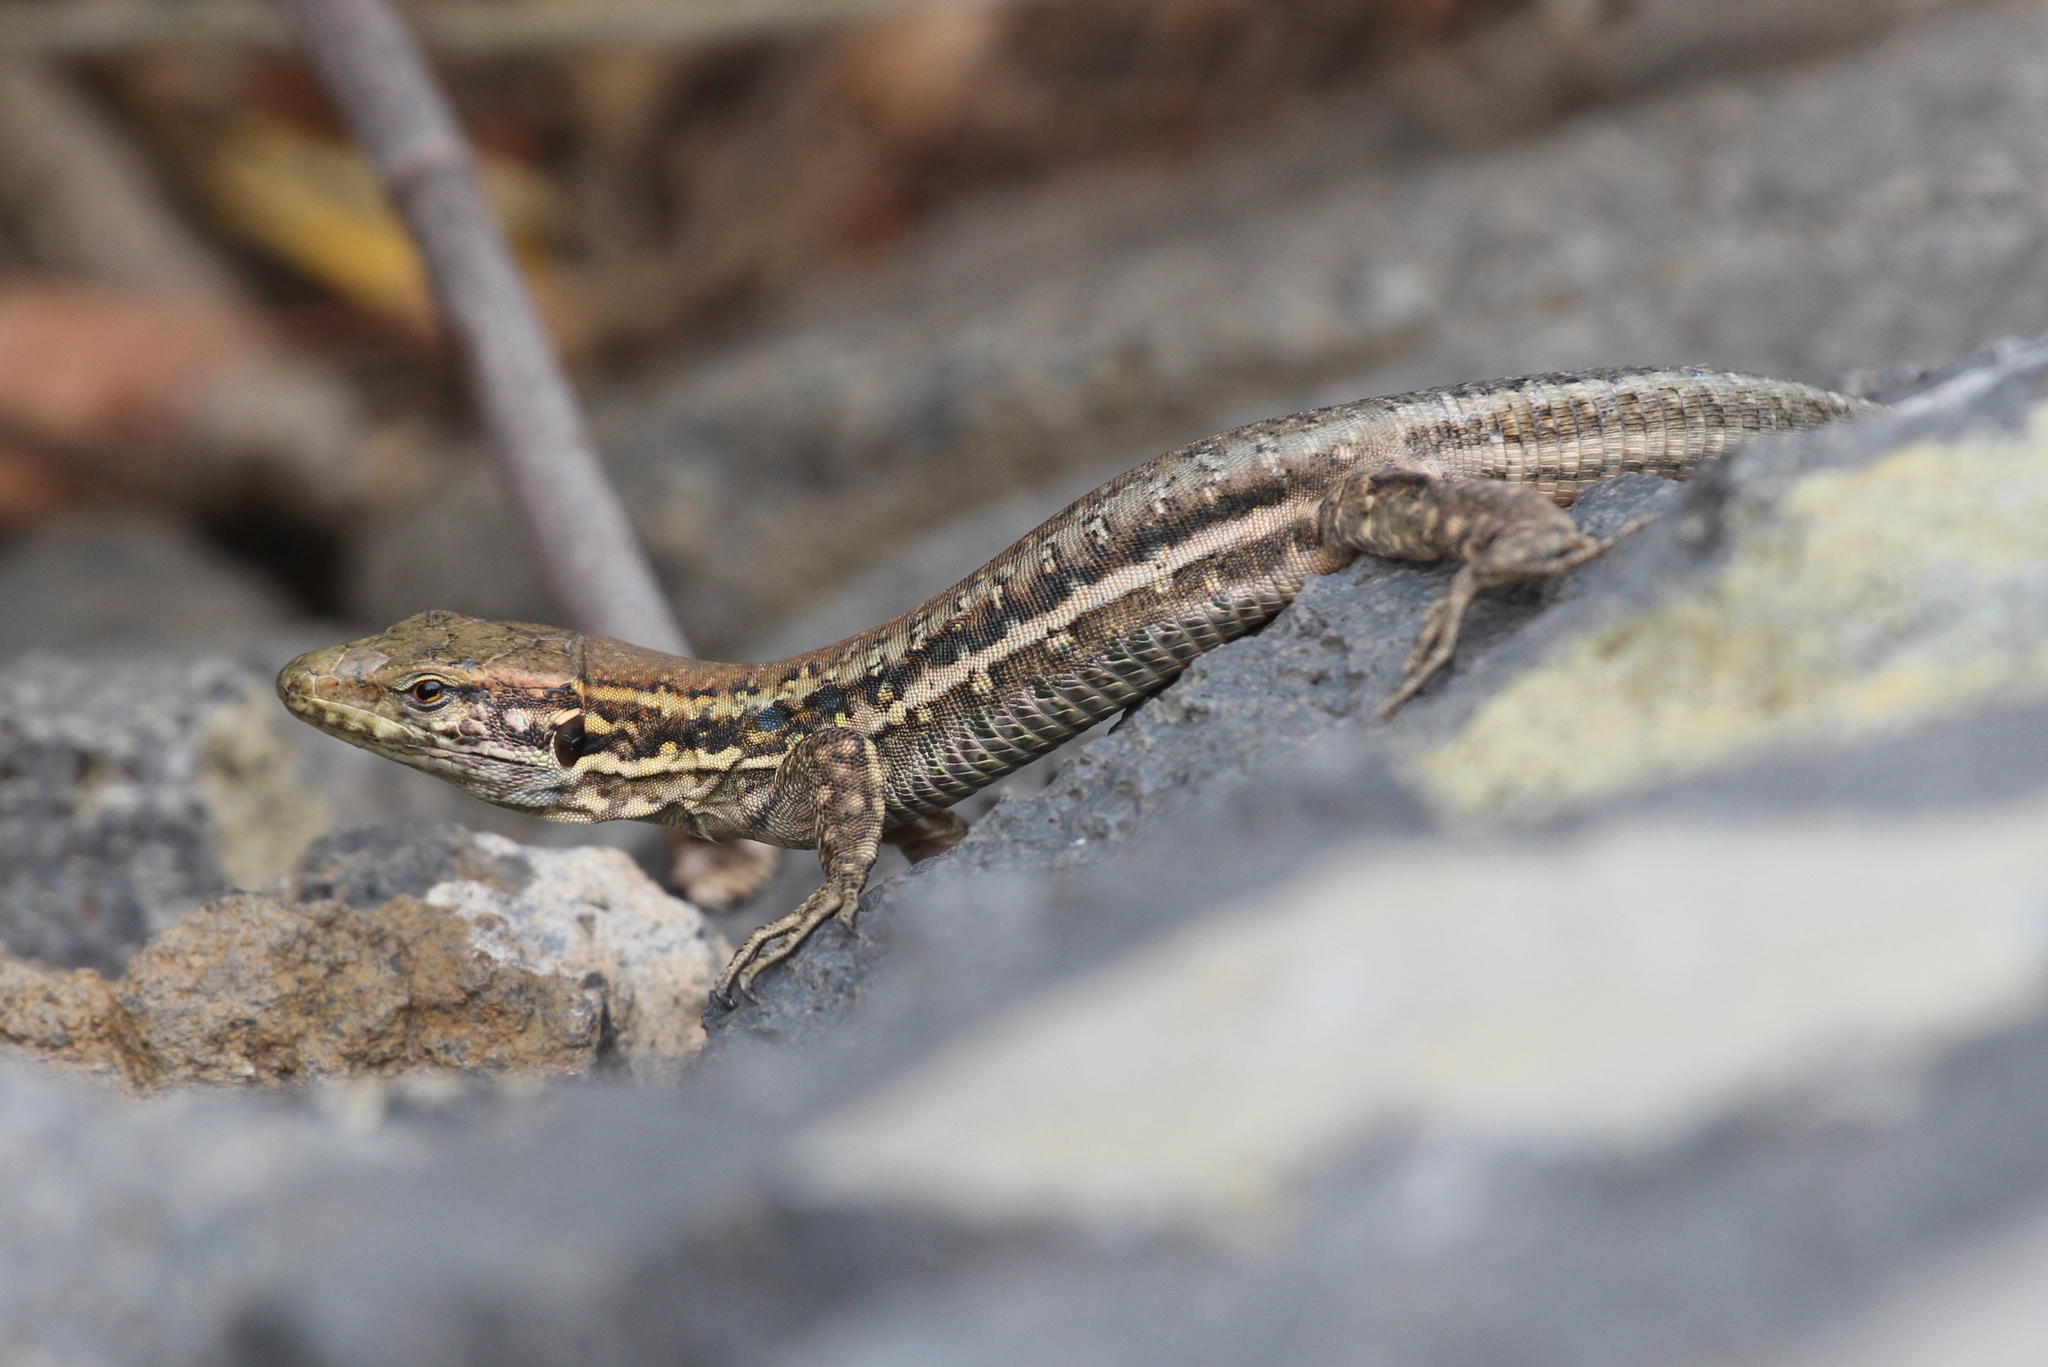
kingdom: Animalia
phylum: Chordata
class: Squamata
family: Lacertidae
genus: Gallotia
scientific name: Gallotia galloti
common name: Gallot's lizard
